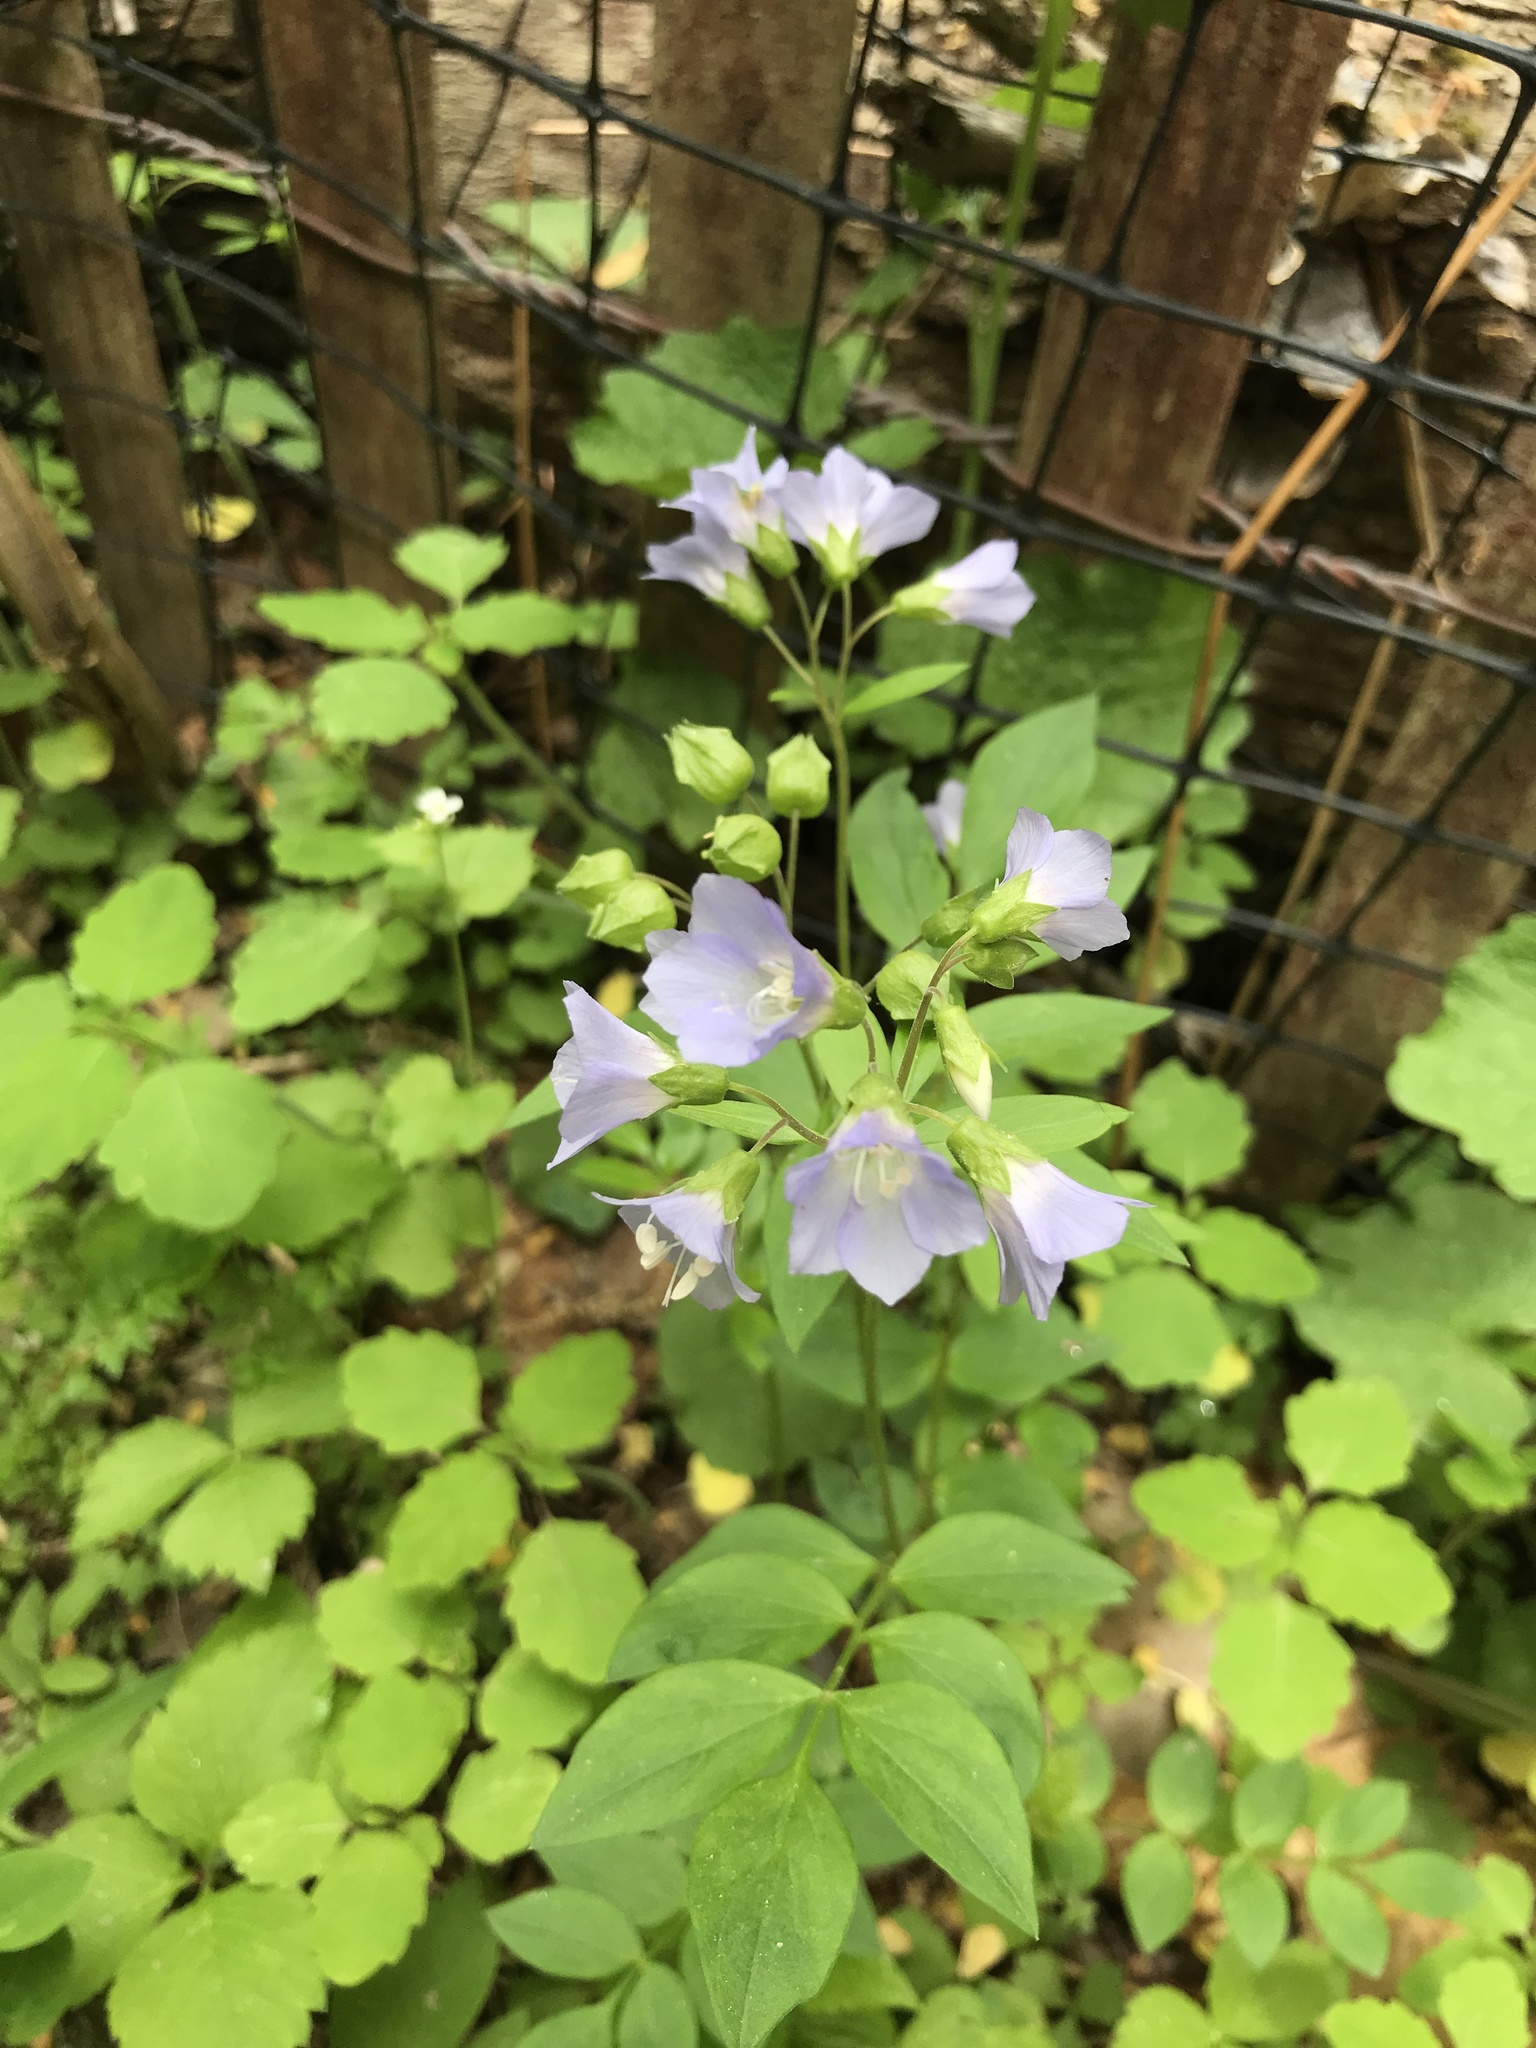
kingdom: Plantae
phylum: Tracheophyta
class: Magnoliopsida
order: Ericales
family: Polemoniaceae
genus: Polemonium
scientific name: Polemonium reptans
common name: Creeping jacob's-ladder
